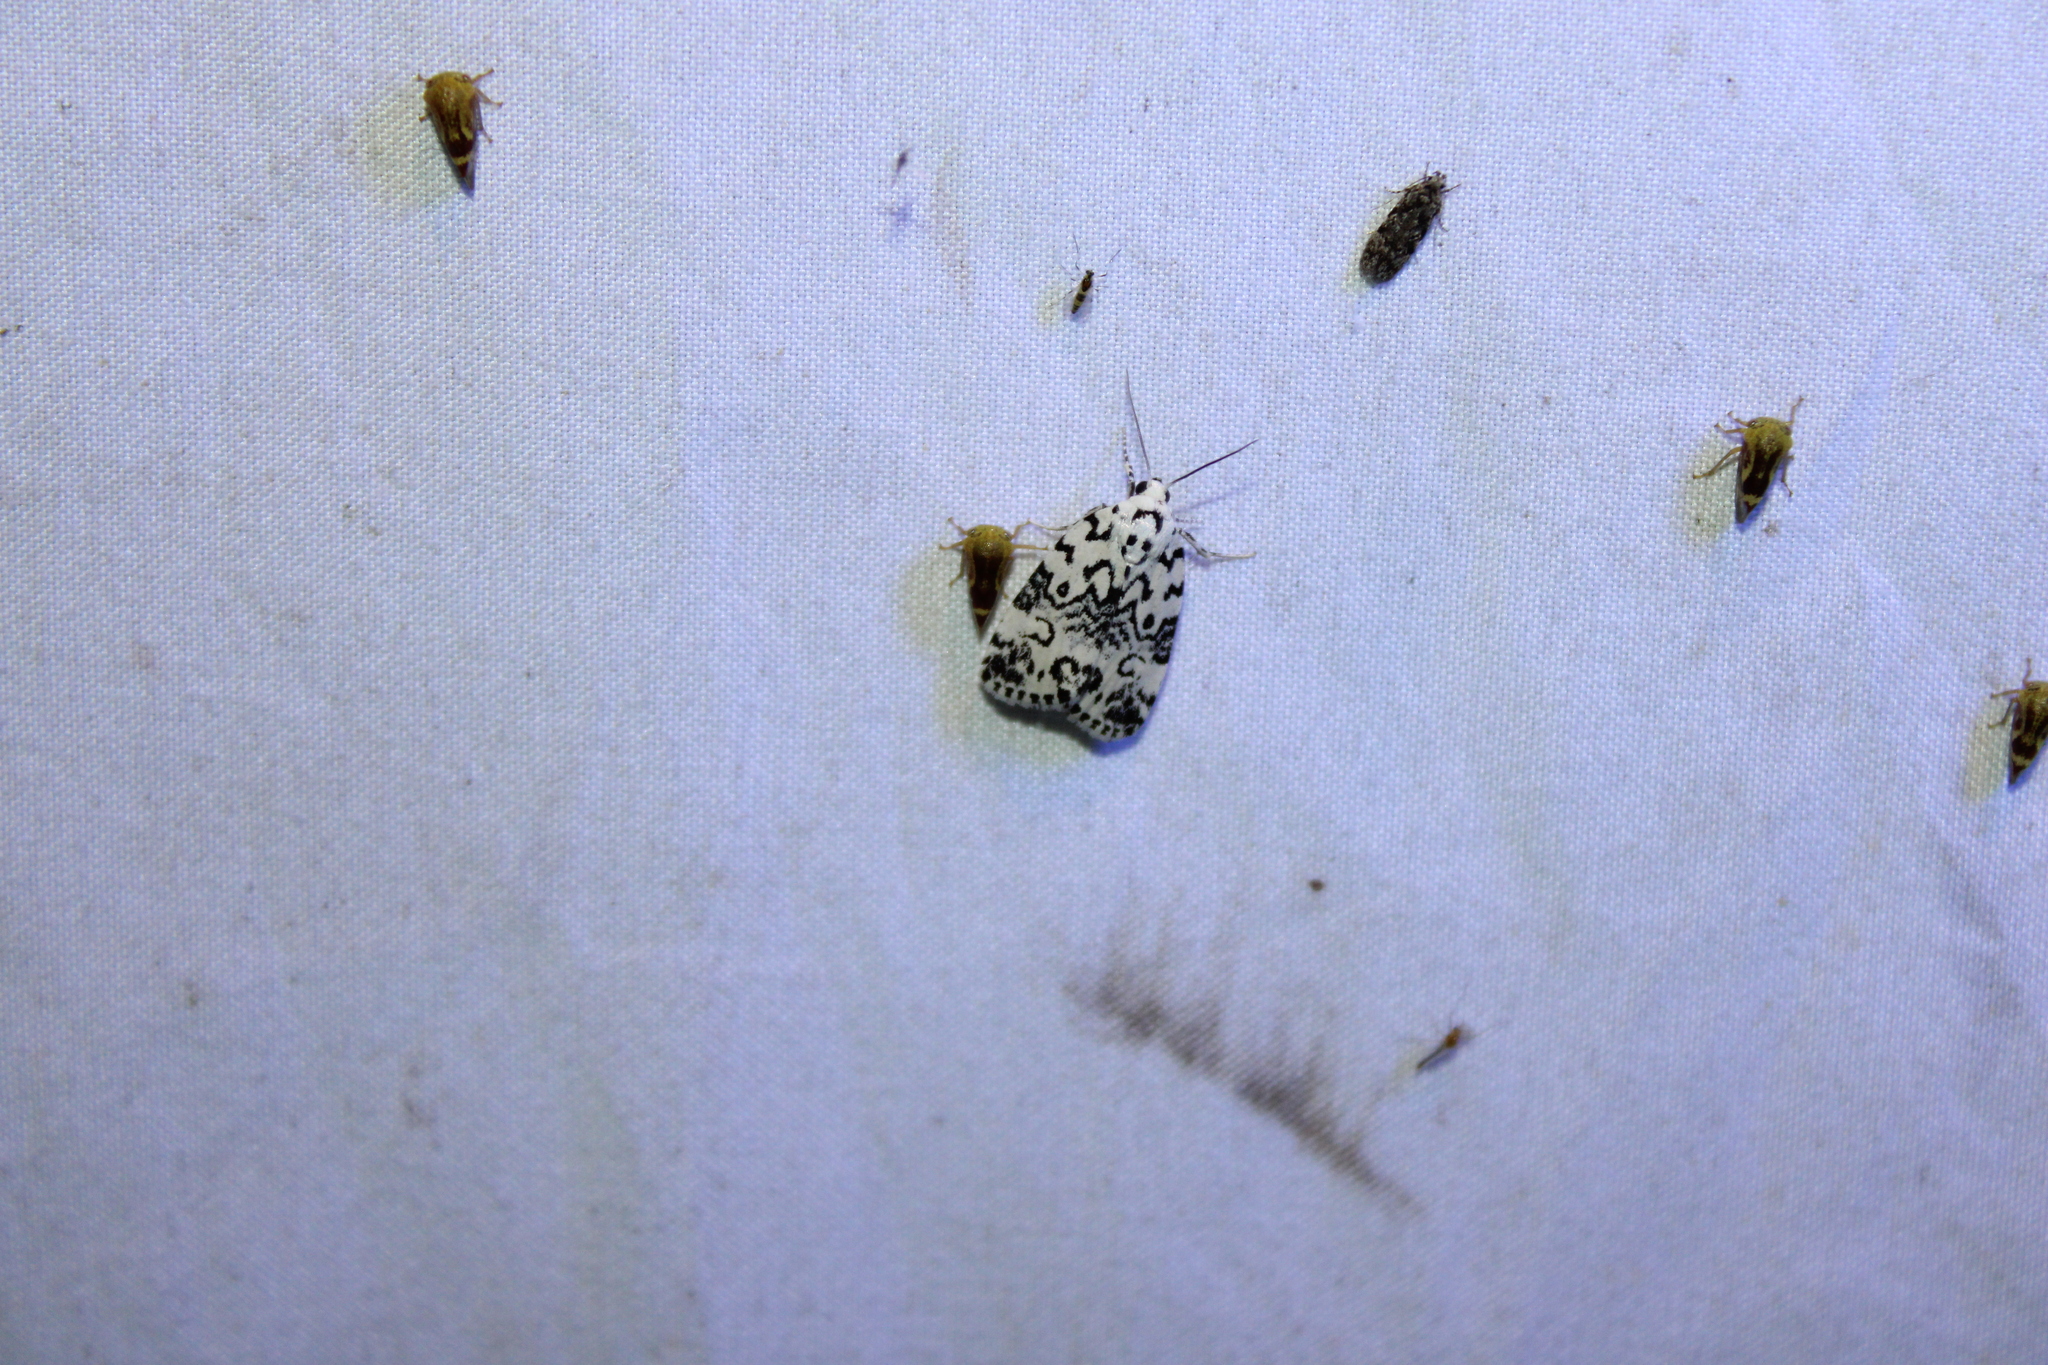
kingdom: Animalia
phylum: Arthropoda
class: Insecta
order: Lepidoptera
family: Noctuidae
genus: Polygrammate
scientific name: Polygrammate hebraeicum
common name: Hebrew moth
